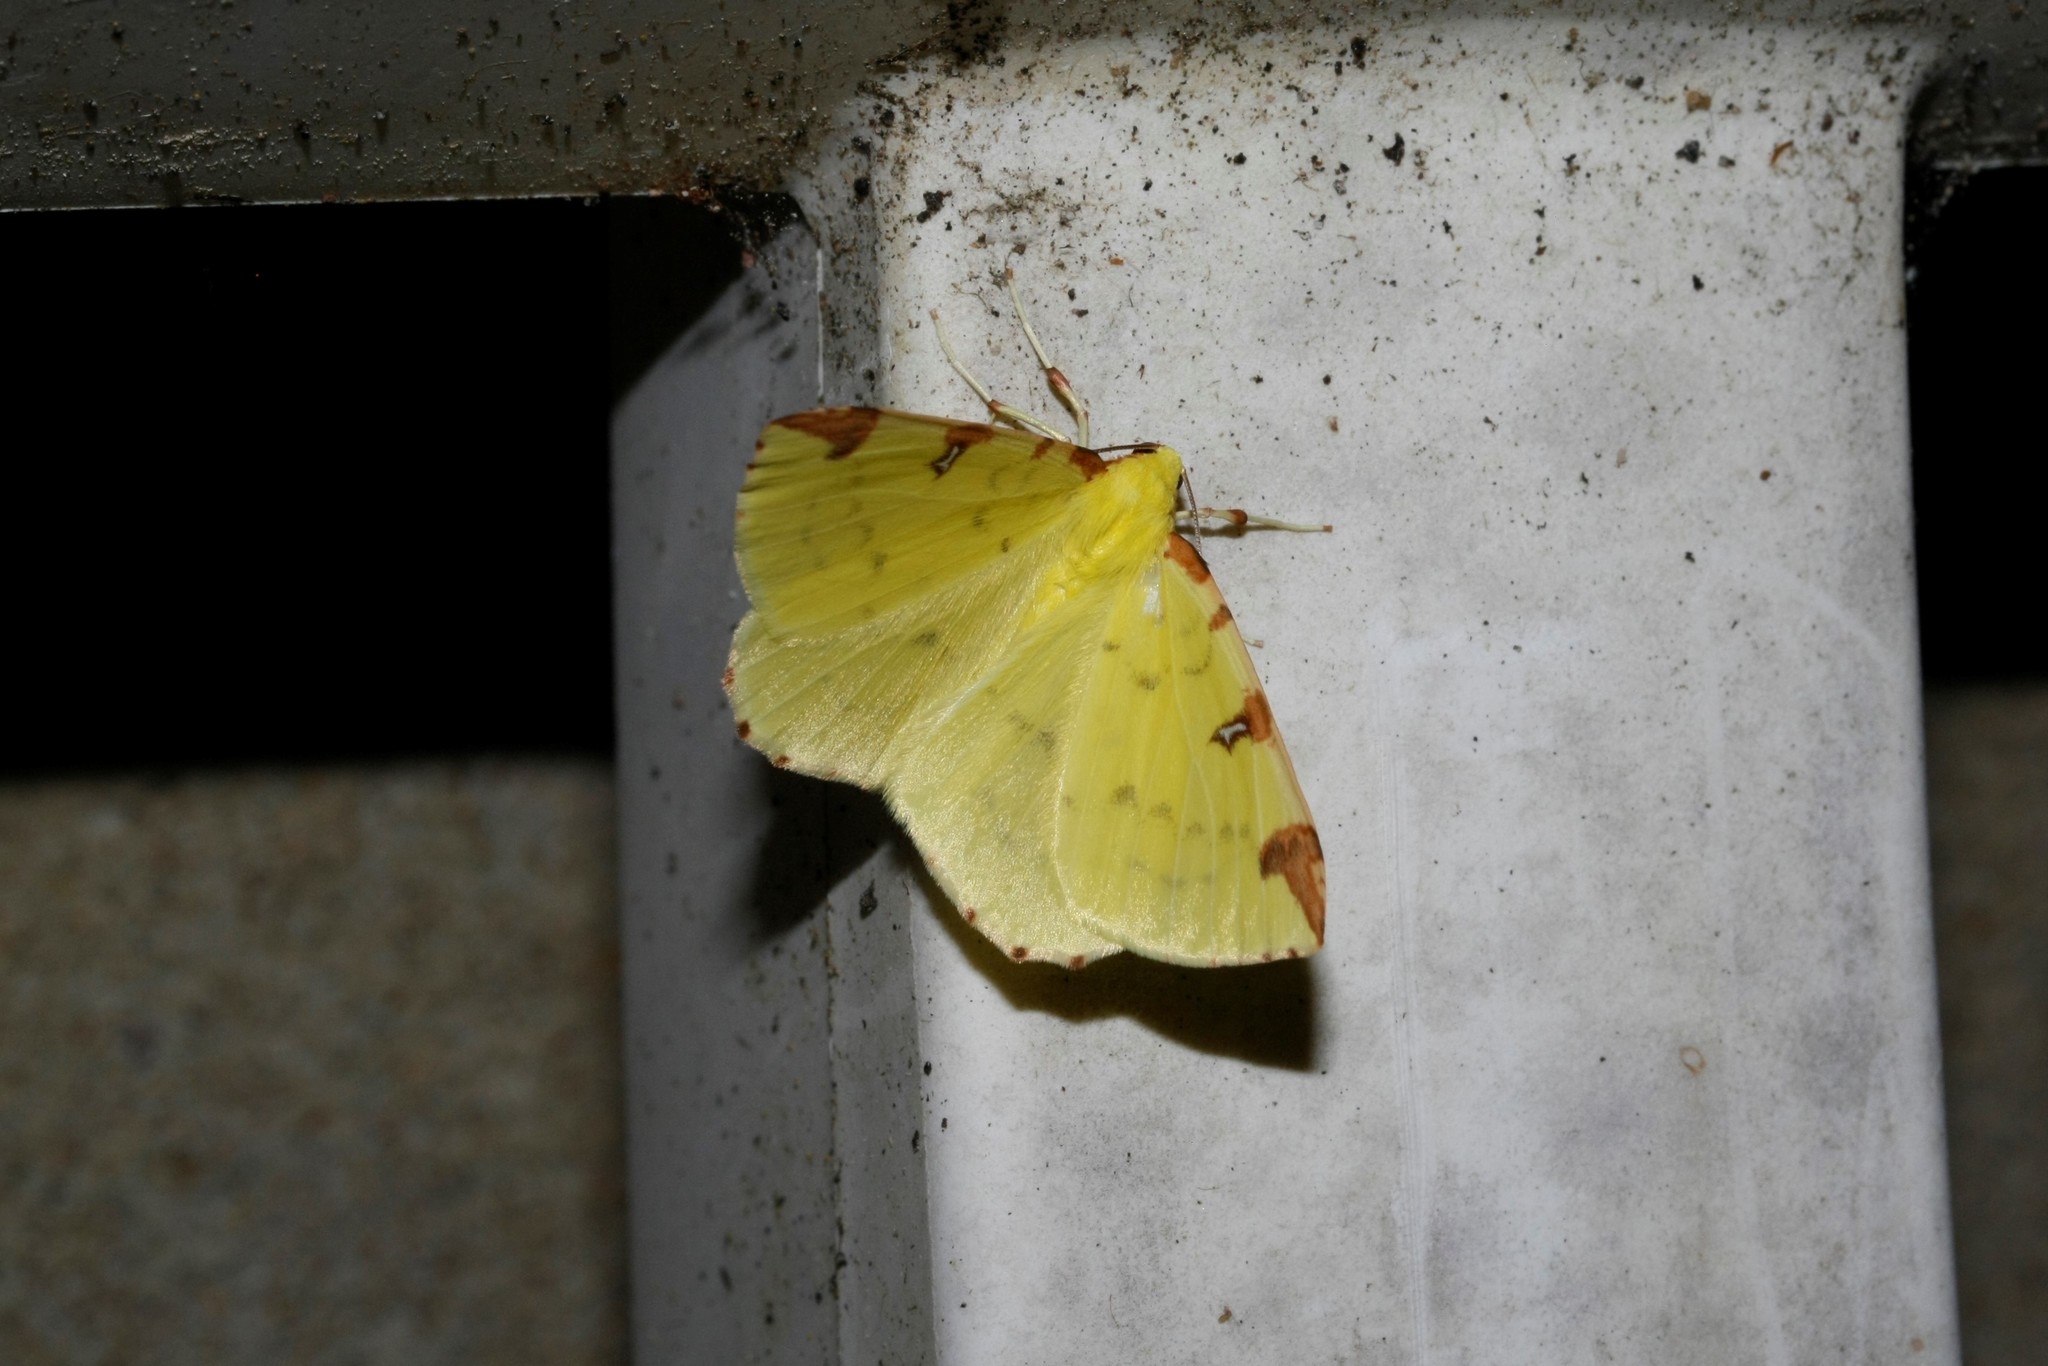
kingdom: Animalia
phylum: Arthropoda
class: Insecta
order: Lepidoptera
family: Geometridae
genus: Opisthograptis
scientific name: Opisthograptis luteolata
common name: Brimstone moth
